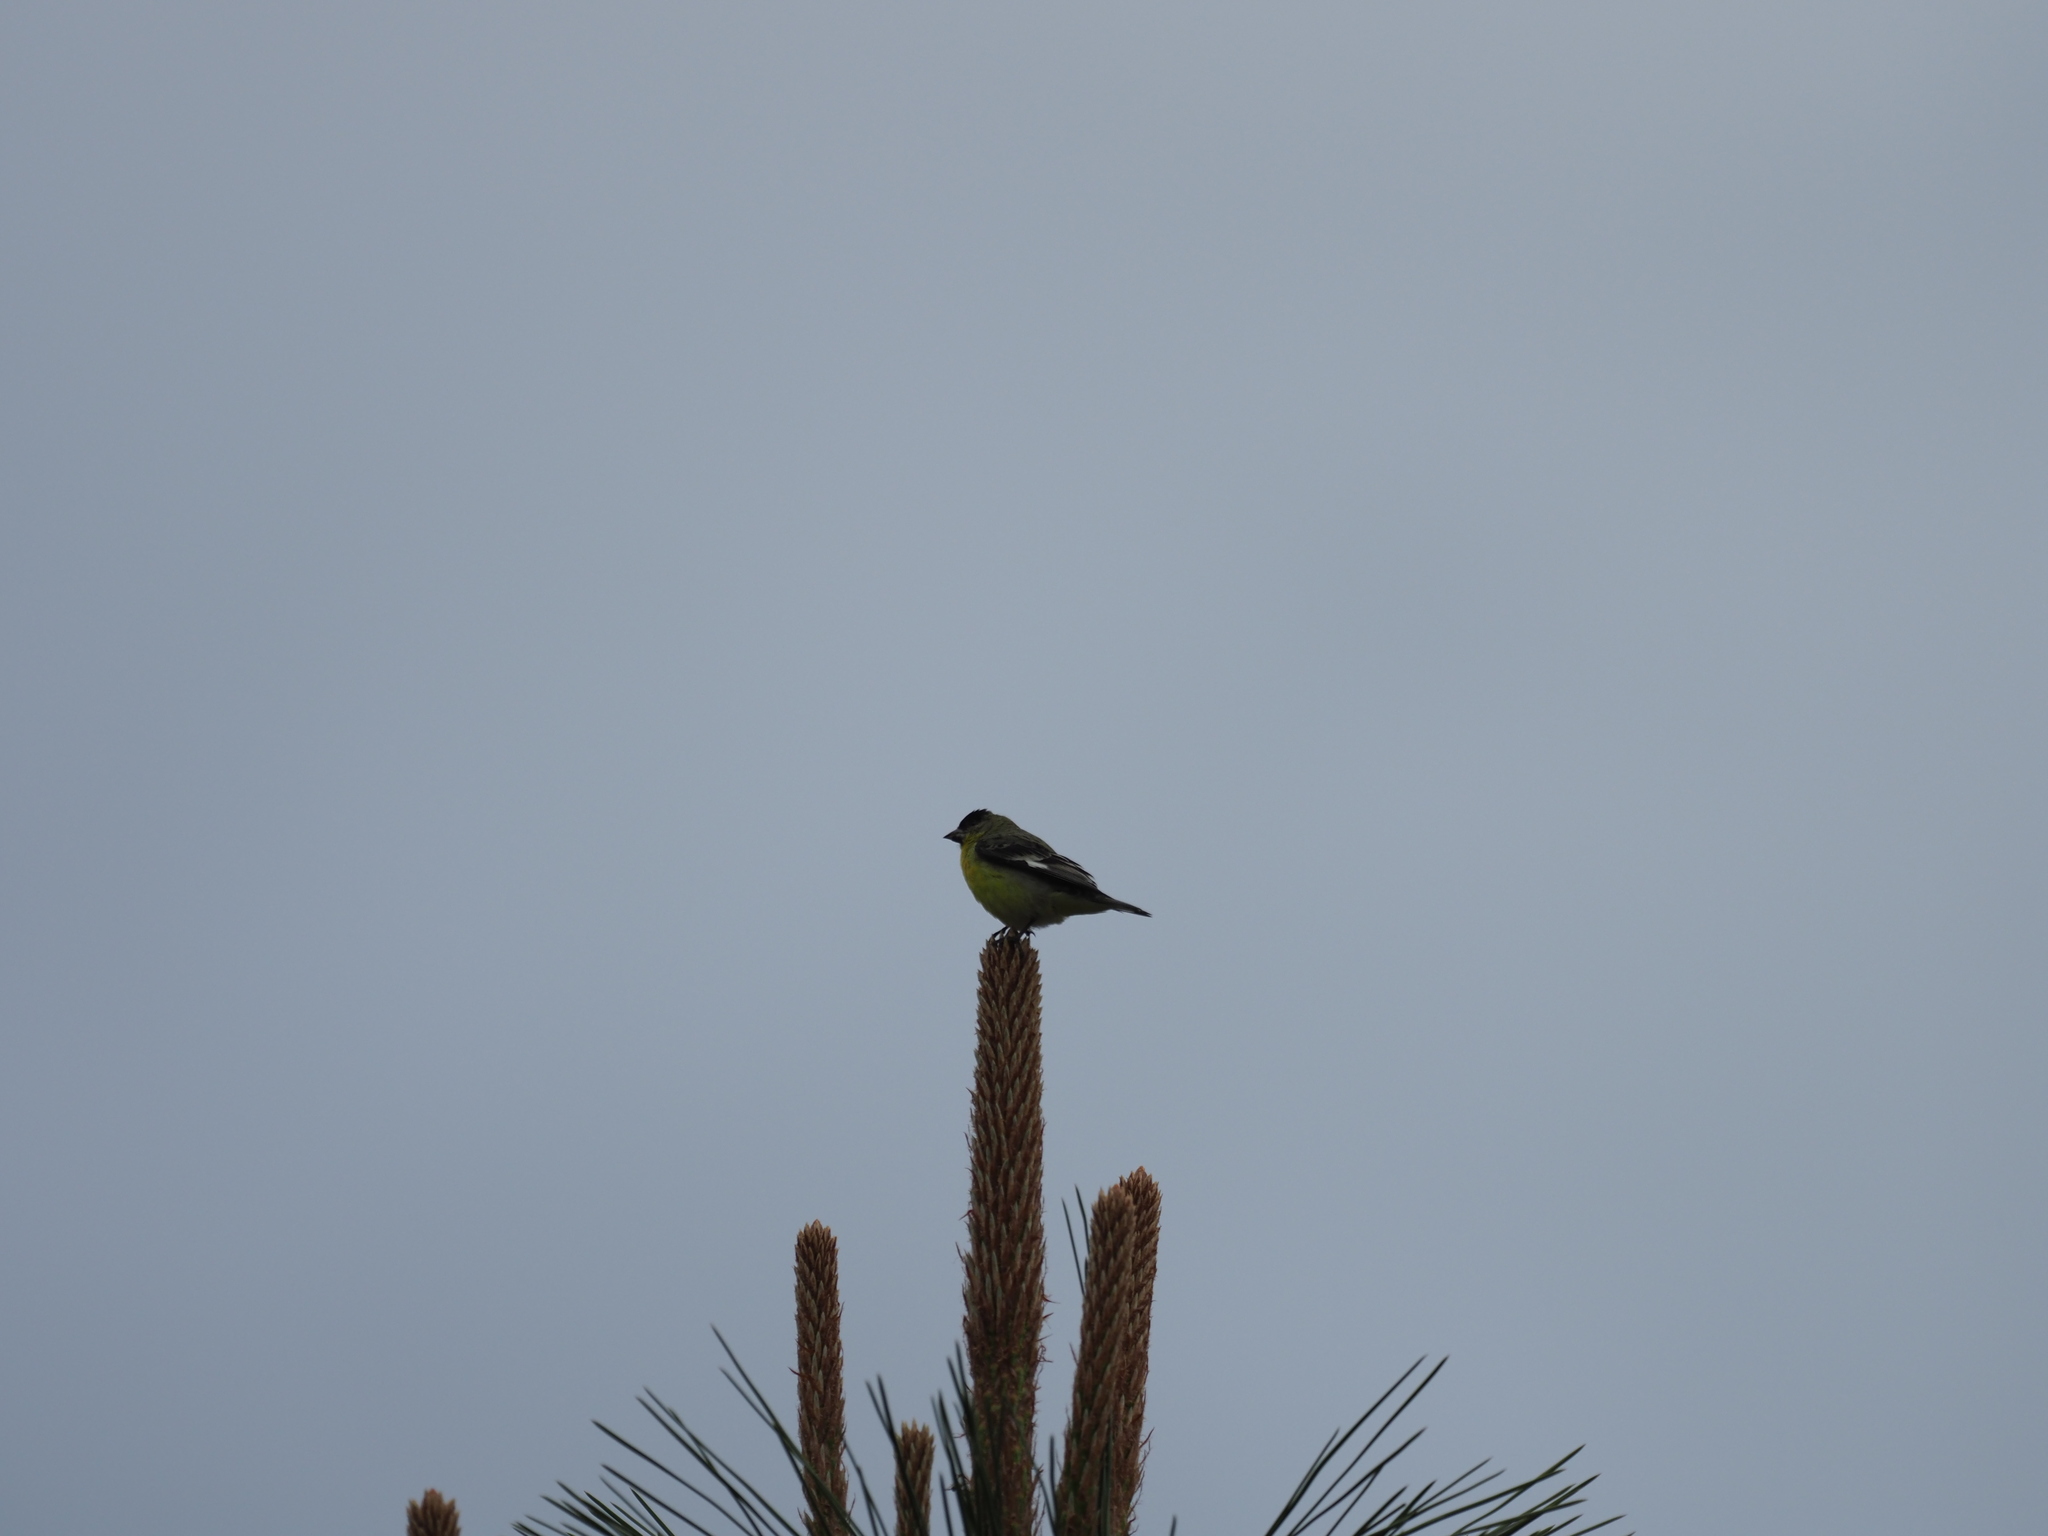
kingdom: Animalia
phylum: Chordata
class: Aves
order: Passeriformes
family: Fringillidae
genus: Spinus
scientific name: Spinus psaltria
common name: Lesser goldfinch
